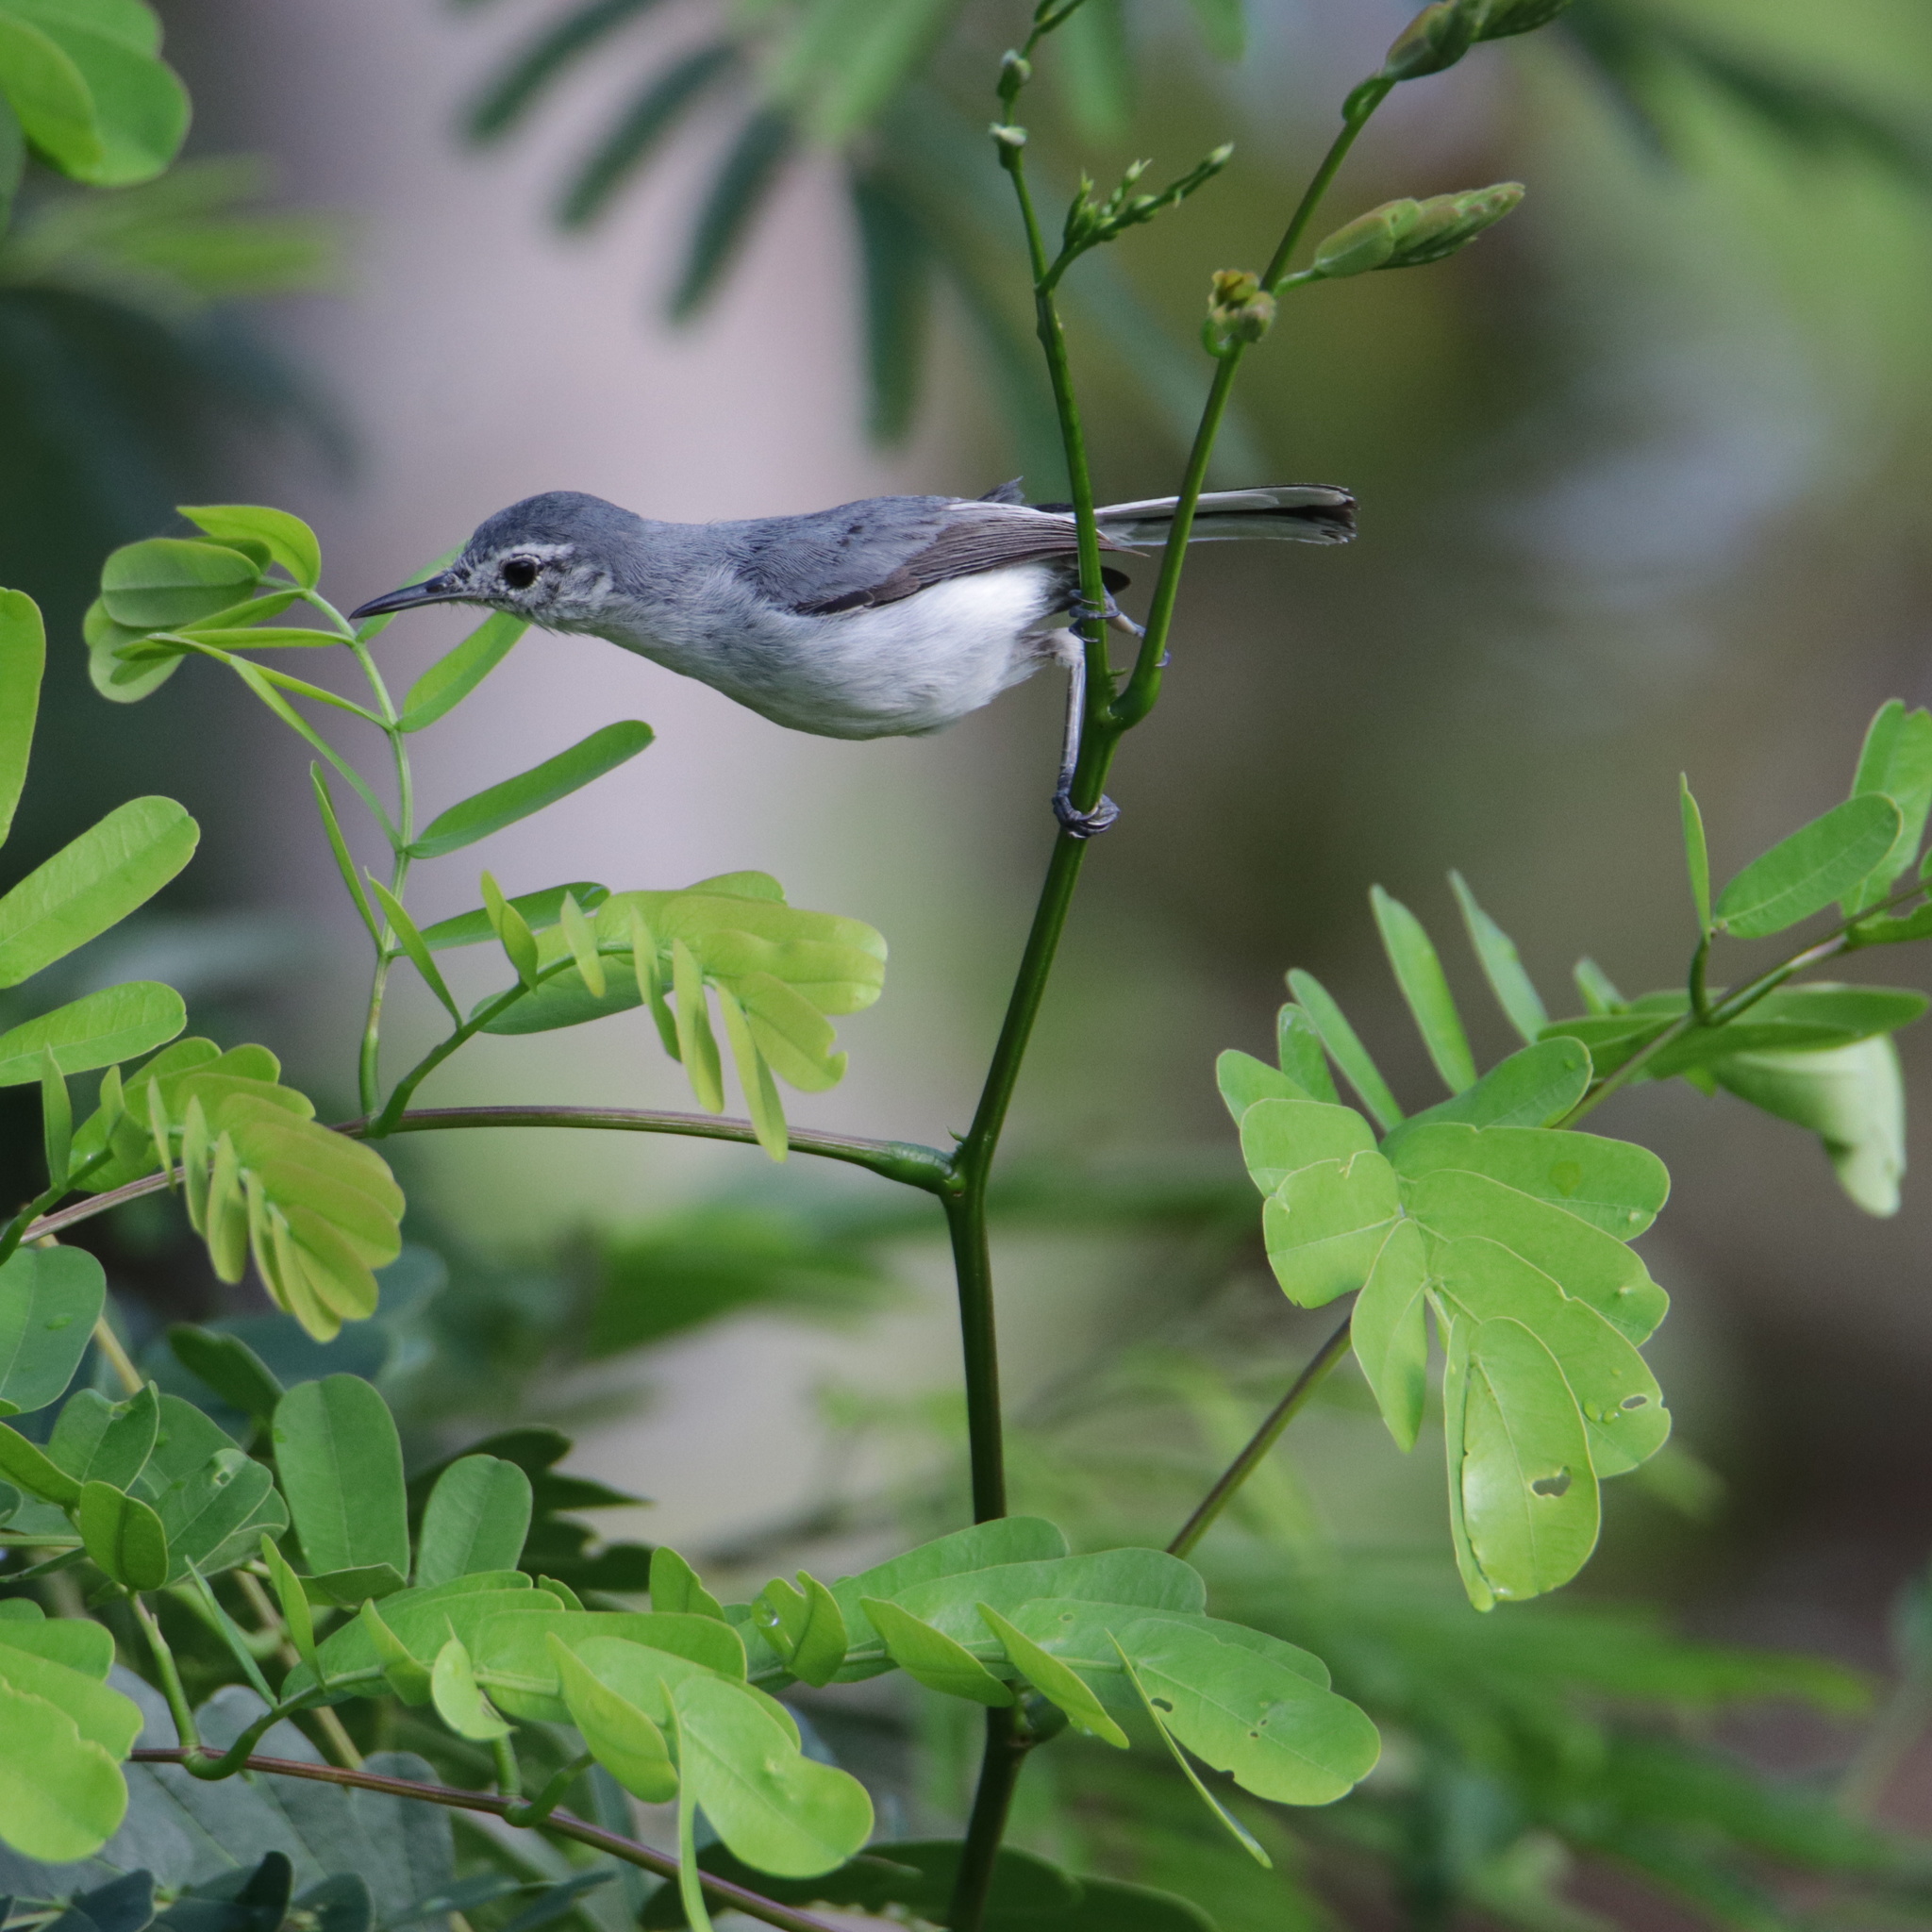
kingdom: Animalia
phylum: Chordata
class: Aves
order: Passeriformes
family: Polioptilidae
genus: Polioptila
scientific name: Polioptila plumbea
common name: Tropical gnatcatcher
